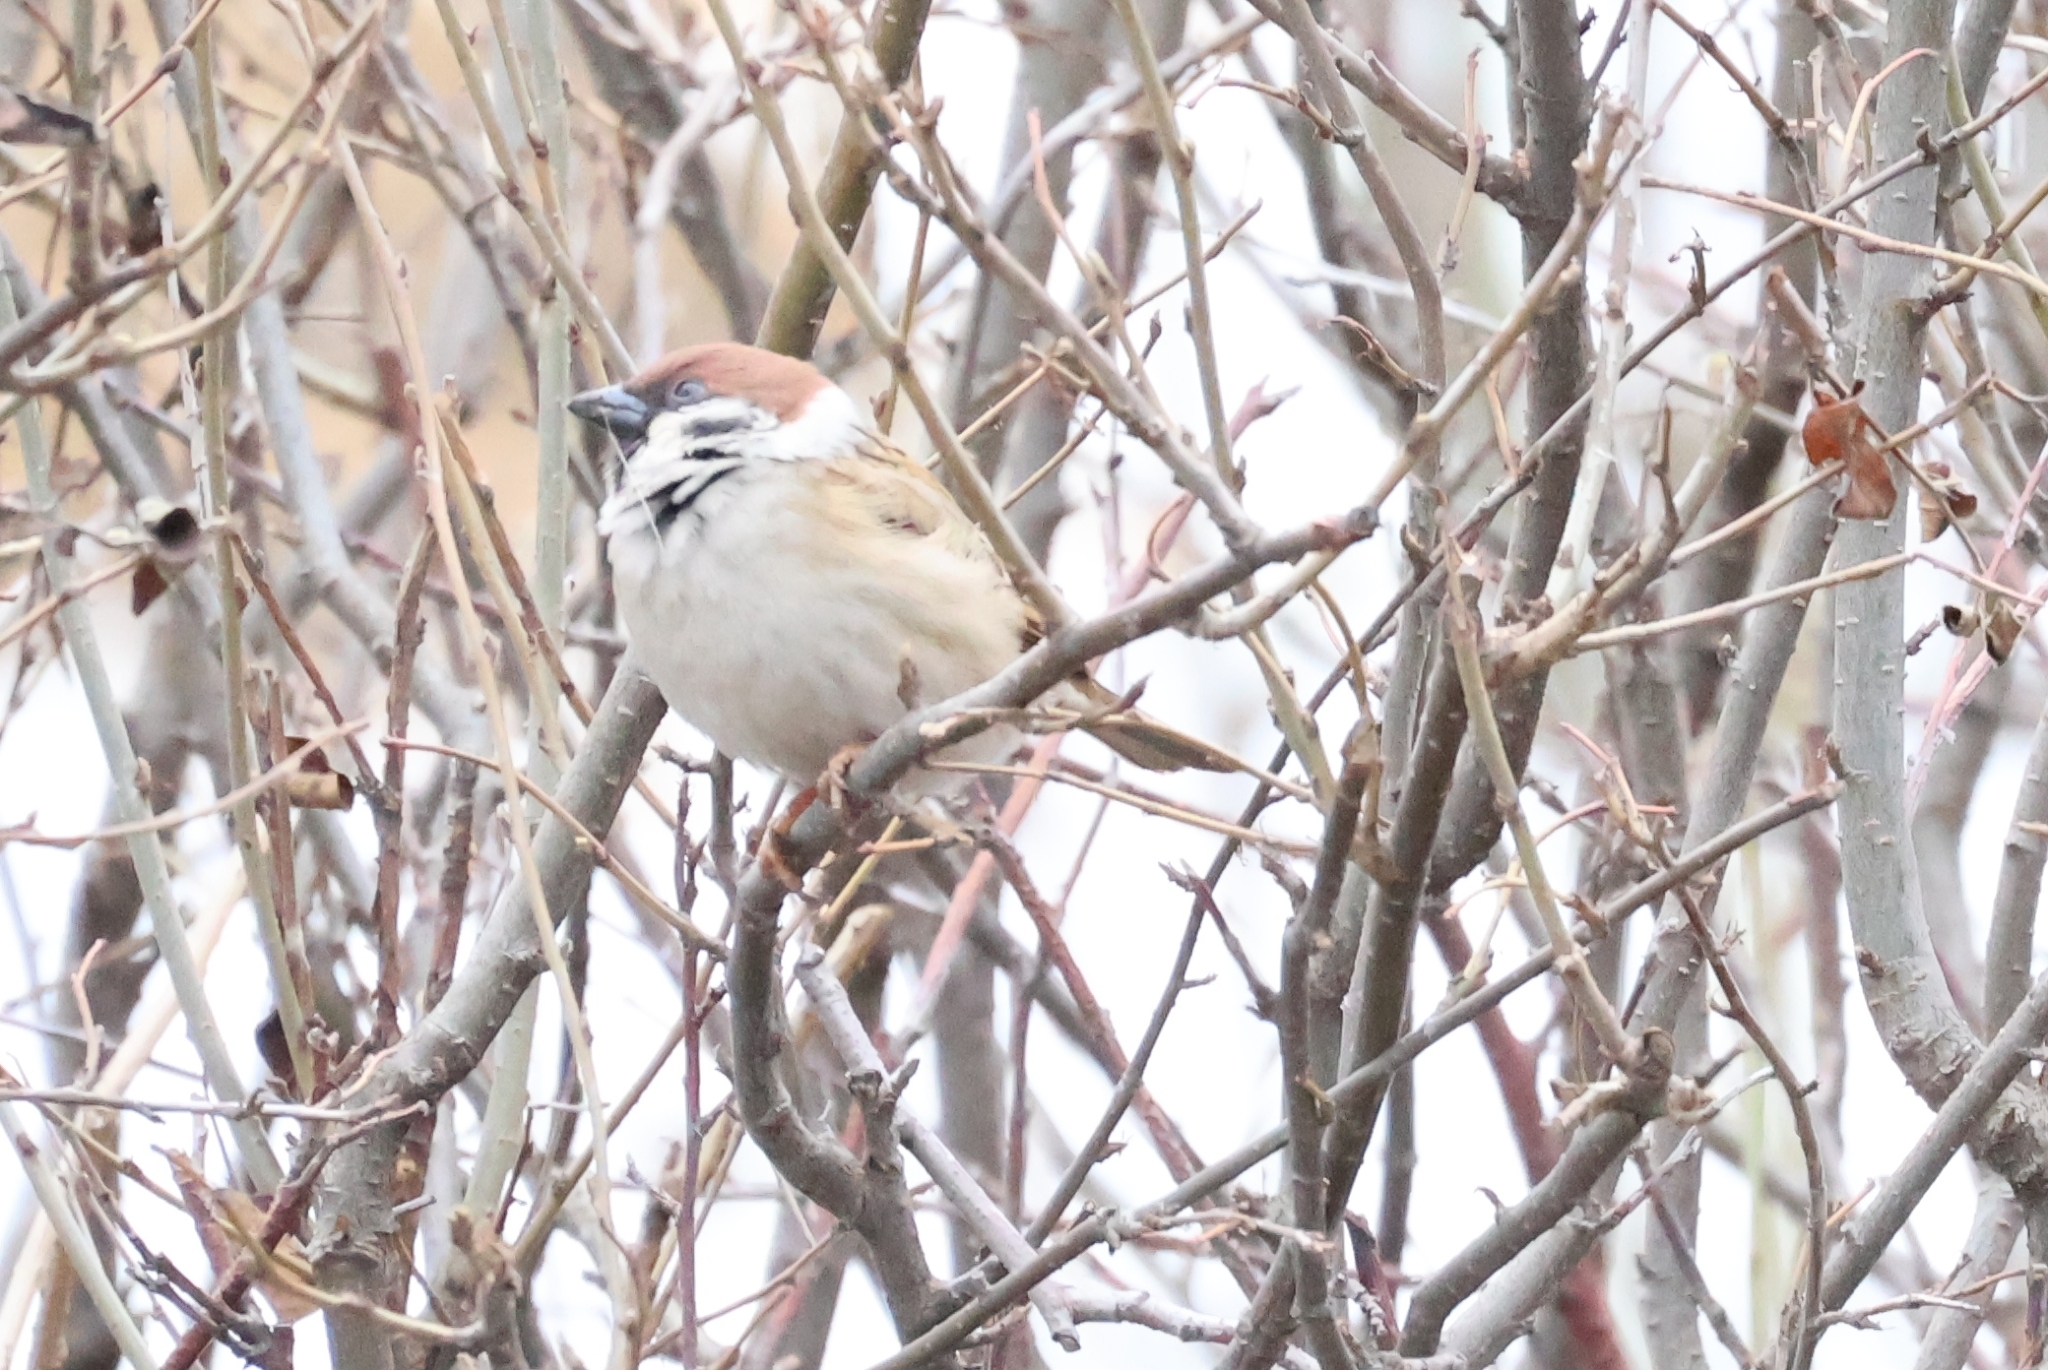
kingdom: Animalia
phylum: Chordata
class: Aves
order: Passeriformes
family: Passeridae
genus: Passer
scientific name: Passer montanus
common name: Eurasian tree sparrow
